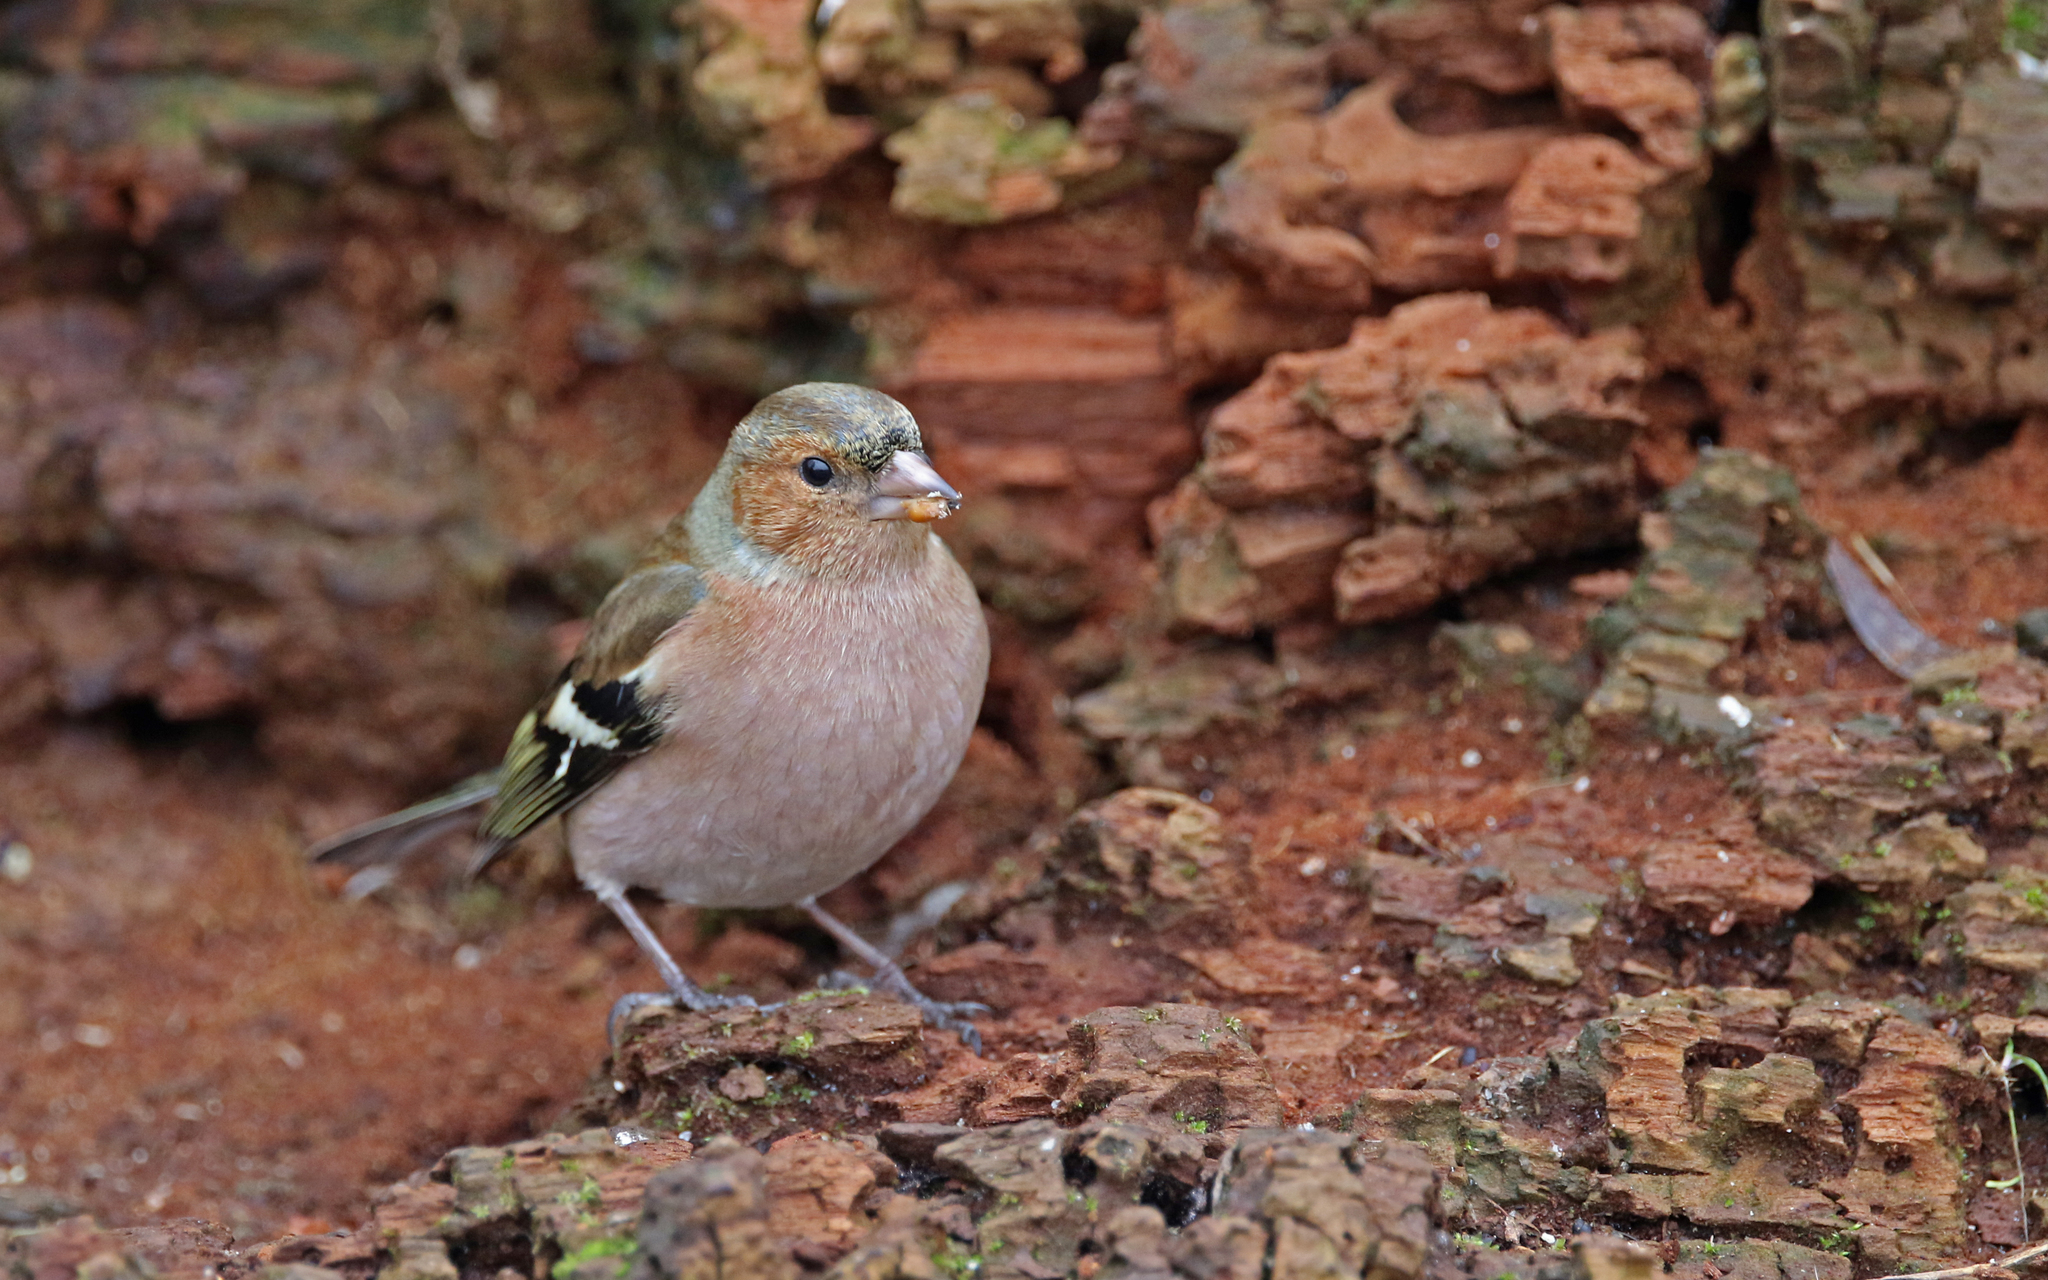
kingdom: Animalia
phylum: Chordata
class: Aves
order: Passeriformes
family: Fringillidae
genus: Fringilla
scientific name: Fringilla coelebs
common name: Common chaffinch
